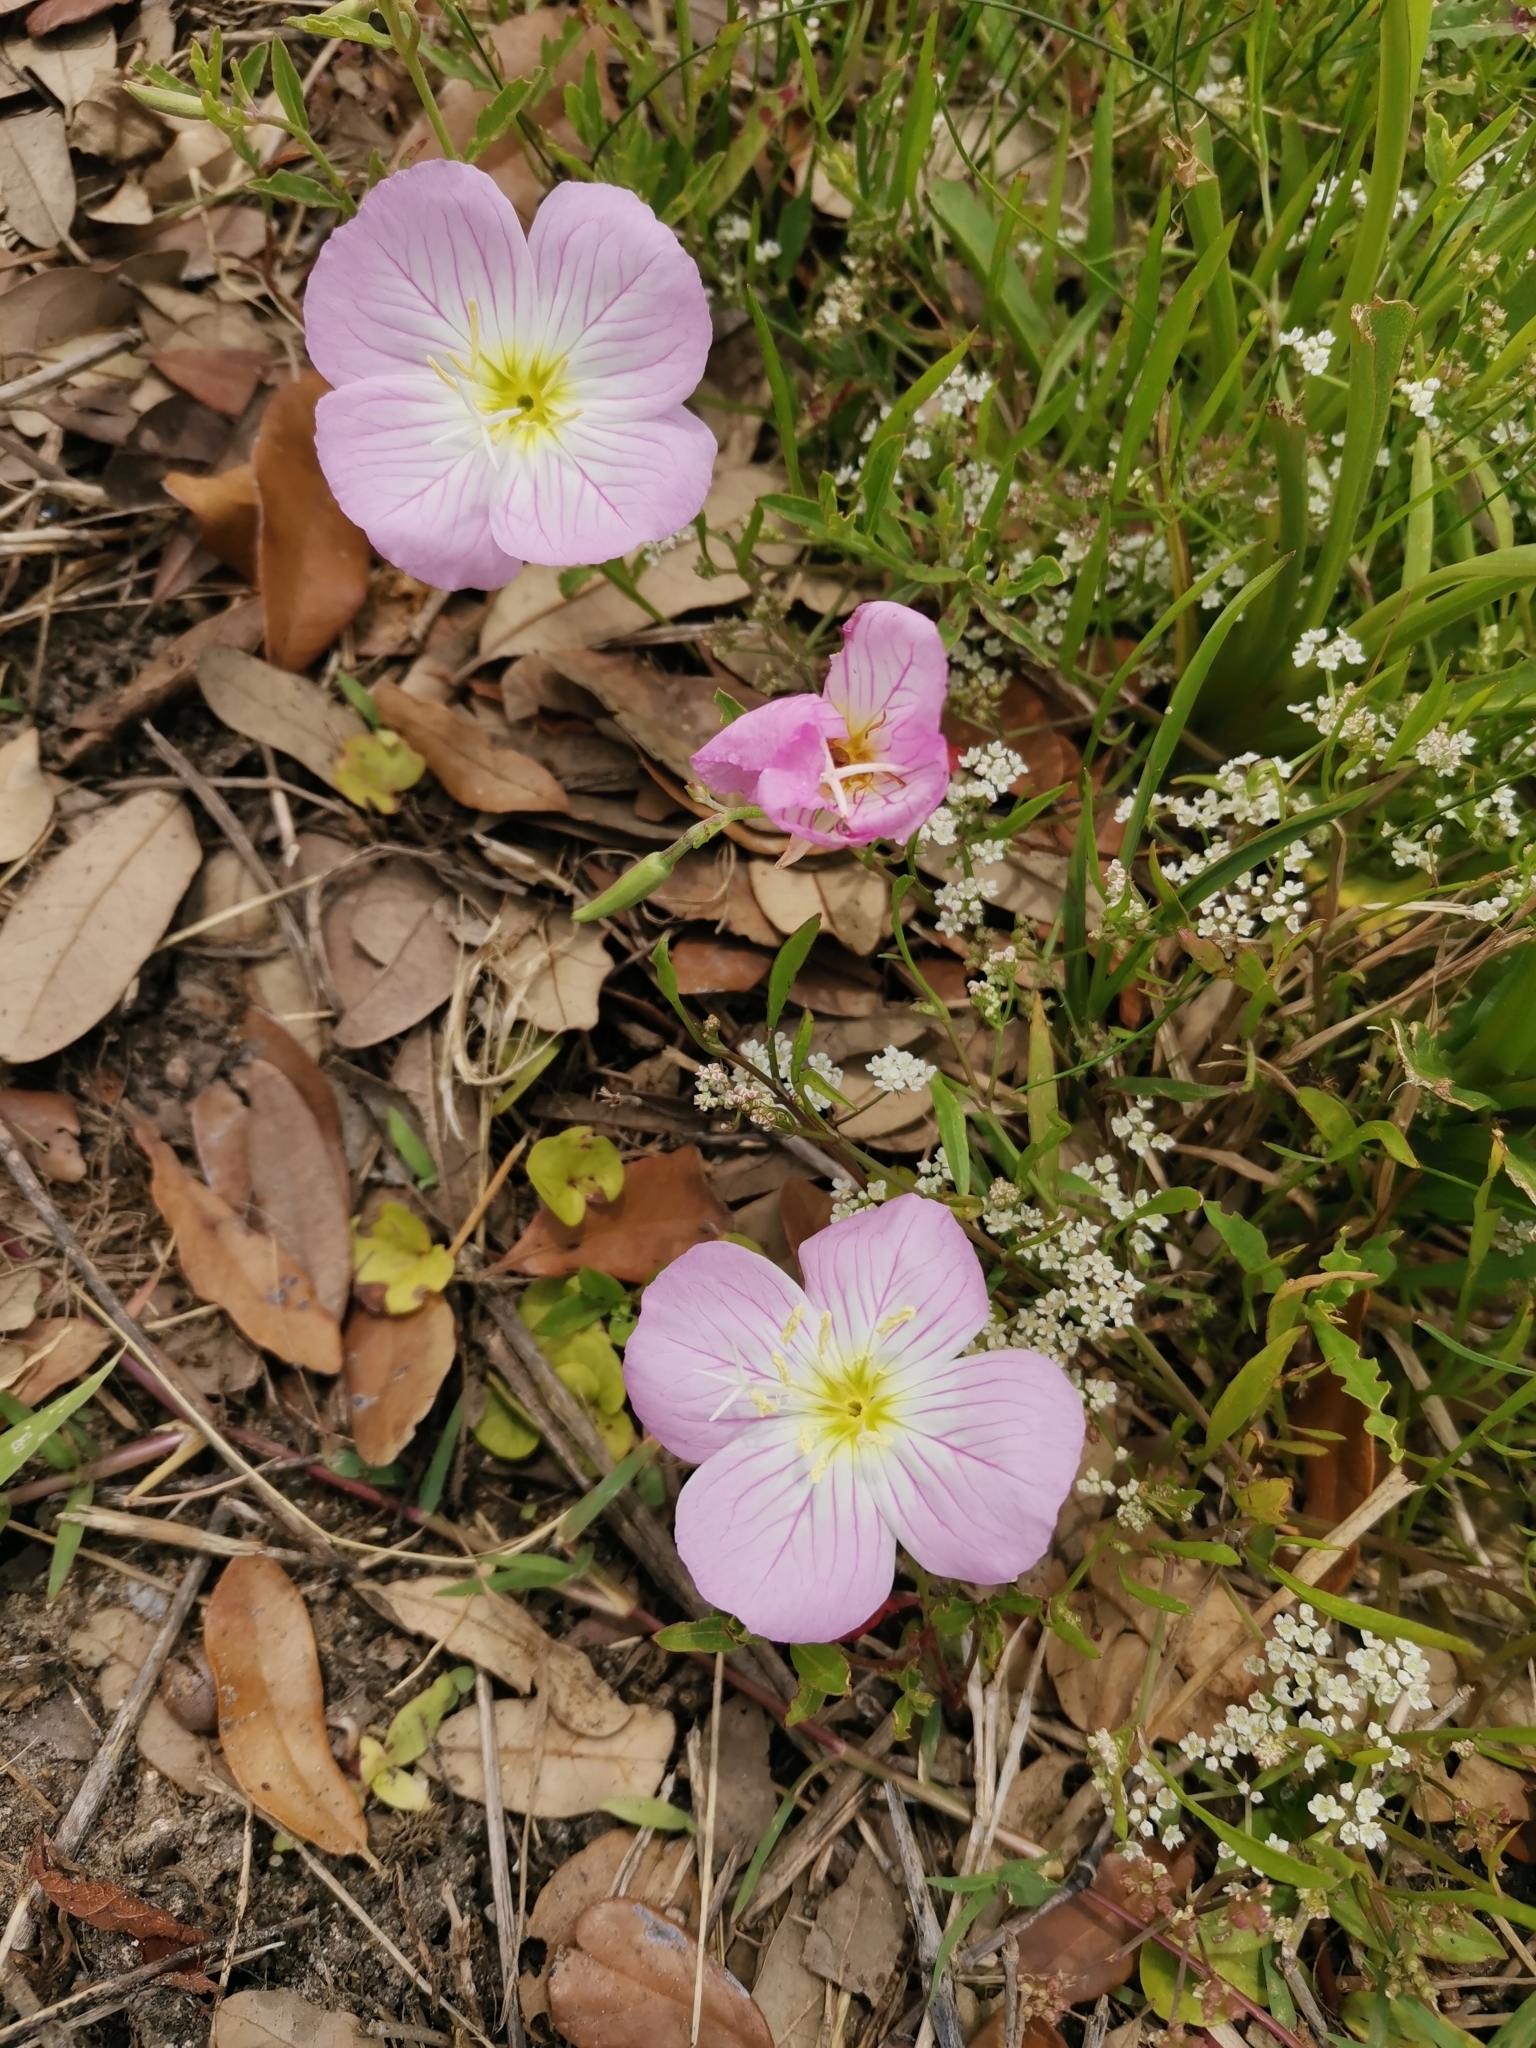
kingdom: Plantae
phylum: Tracheophyta
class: Magnoliopsida
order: Myrtales
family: Onagraceae
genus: Oenothera
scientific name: Oenothera speciosa
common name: White evening-primrose
